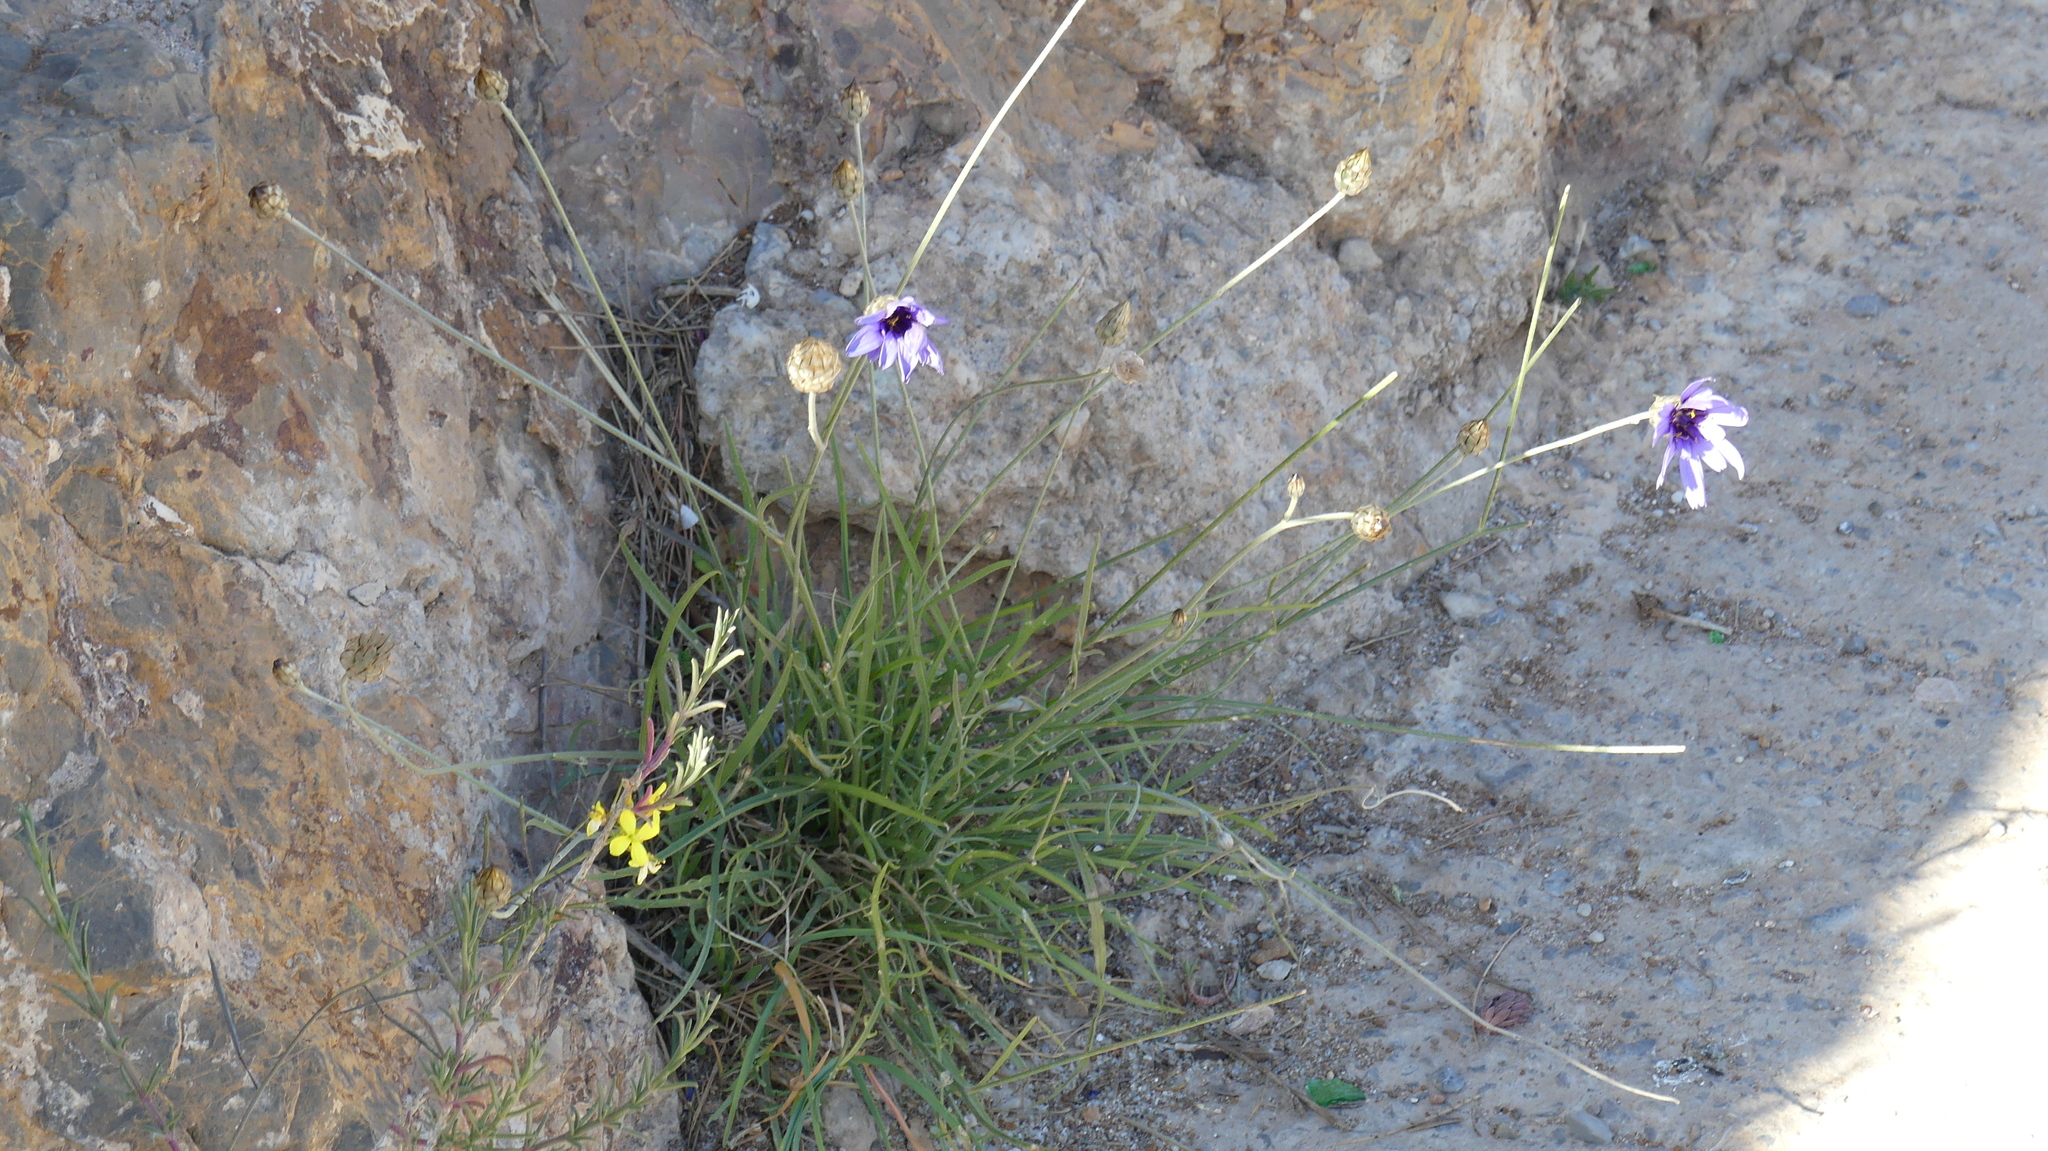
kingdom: Plantae
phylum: Tracheophyta
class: Magnoliopsida
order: Asterales
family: Asteraceae
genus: Catananche
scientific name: Catananche caerulea
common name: Blue cupidone
